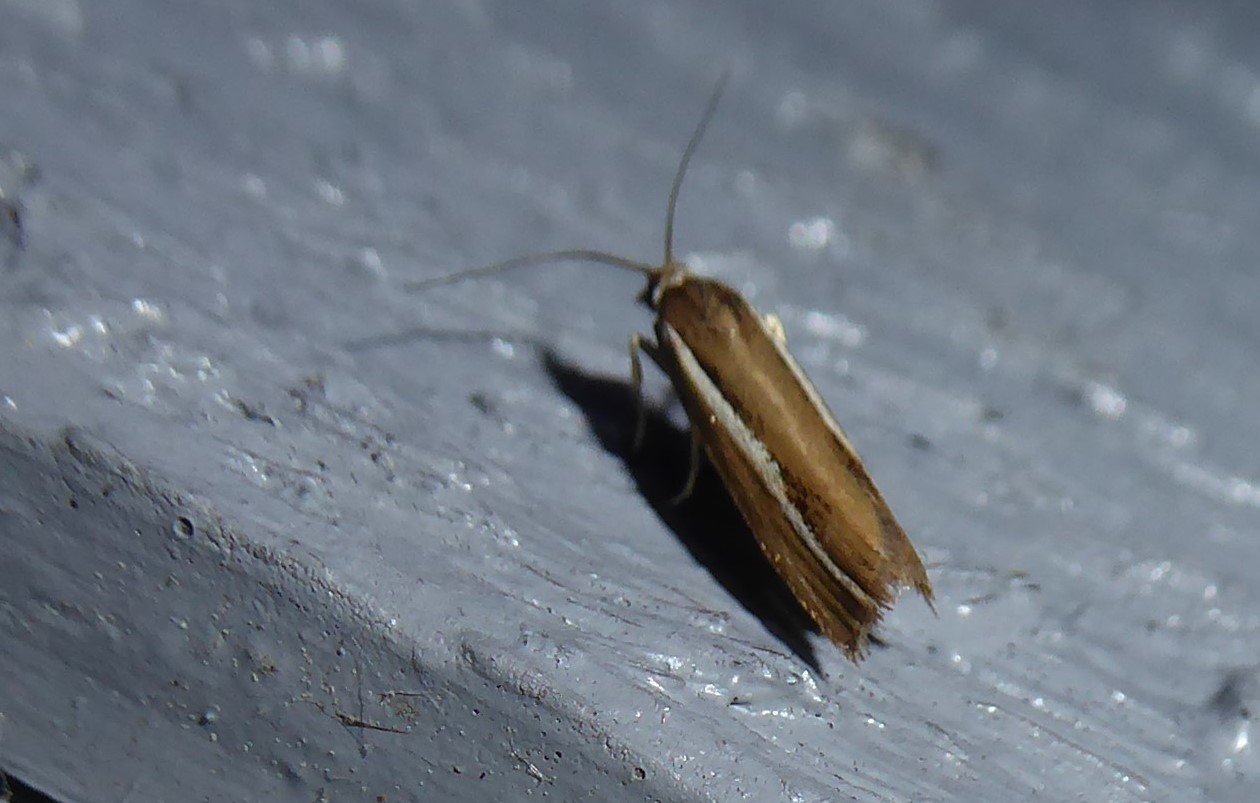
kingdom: Animalia
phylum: Arthropoda
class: Insecta
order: Lepidoptera
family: Crambidae
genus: Orocrambus
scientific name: Orocrambus melitastes
